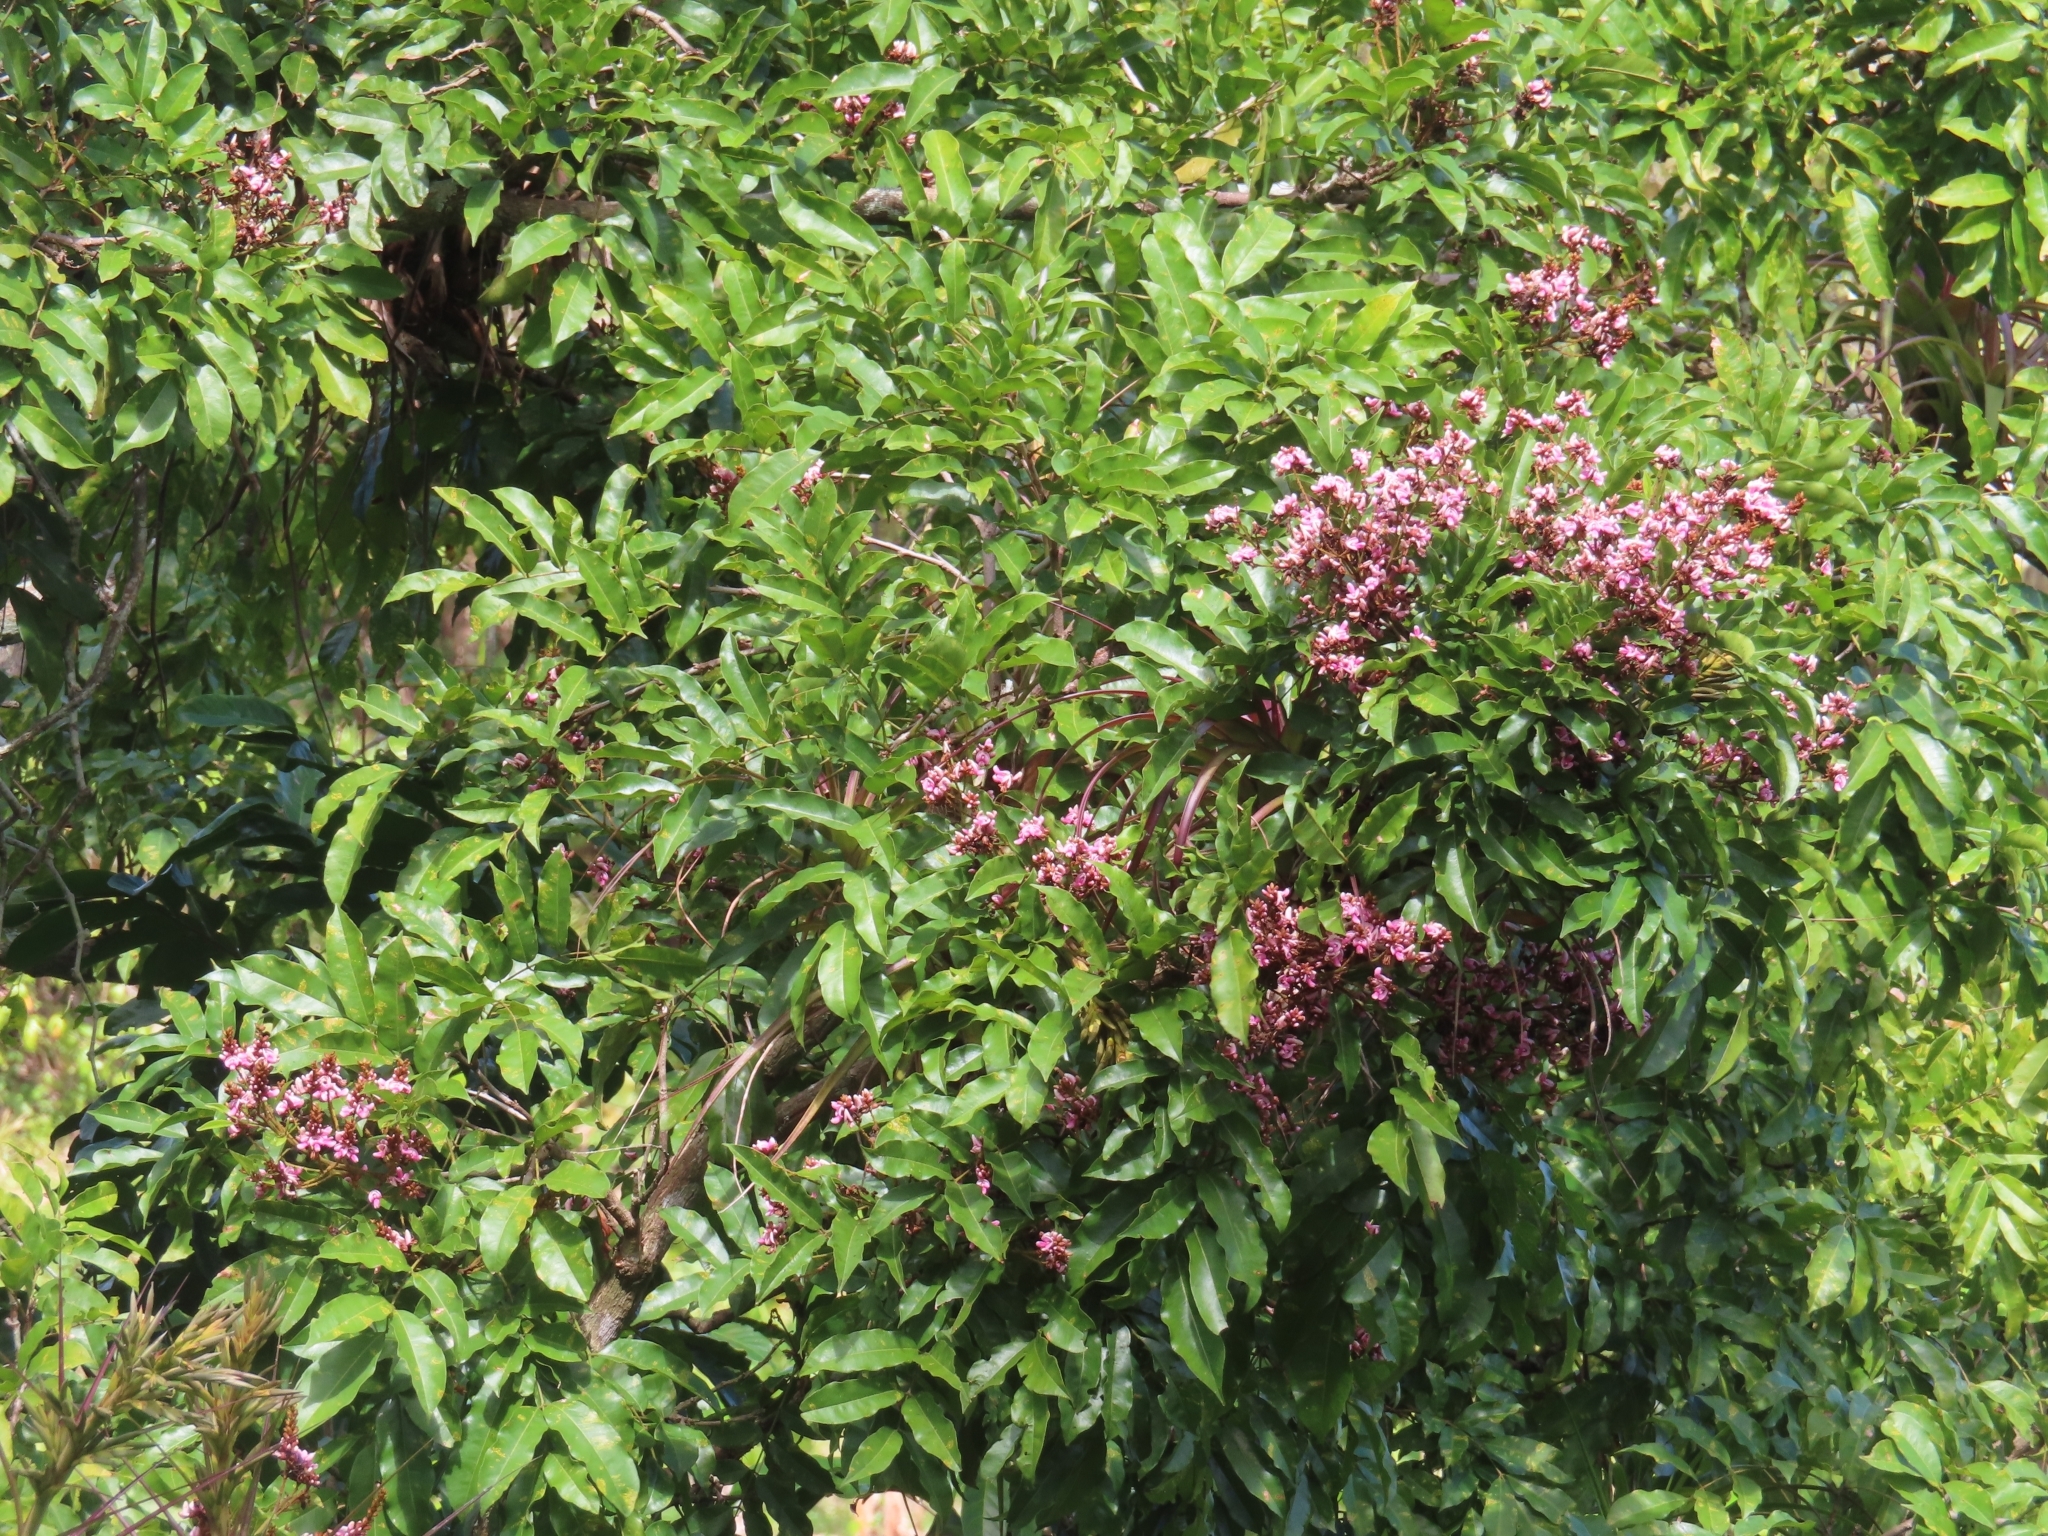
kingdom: Plantae
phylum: Tracheophyta
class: Magnoliopsida
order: Fabales
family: Fabaceae
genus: Andira
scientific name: Andira inermis
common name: Angelin
